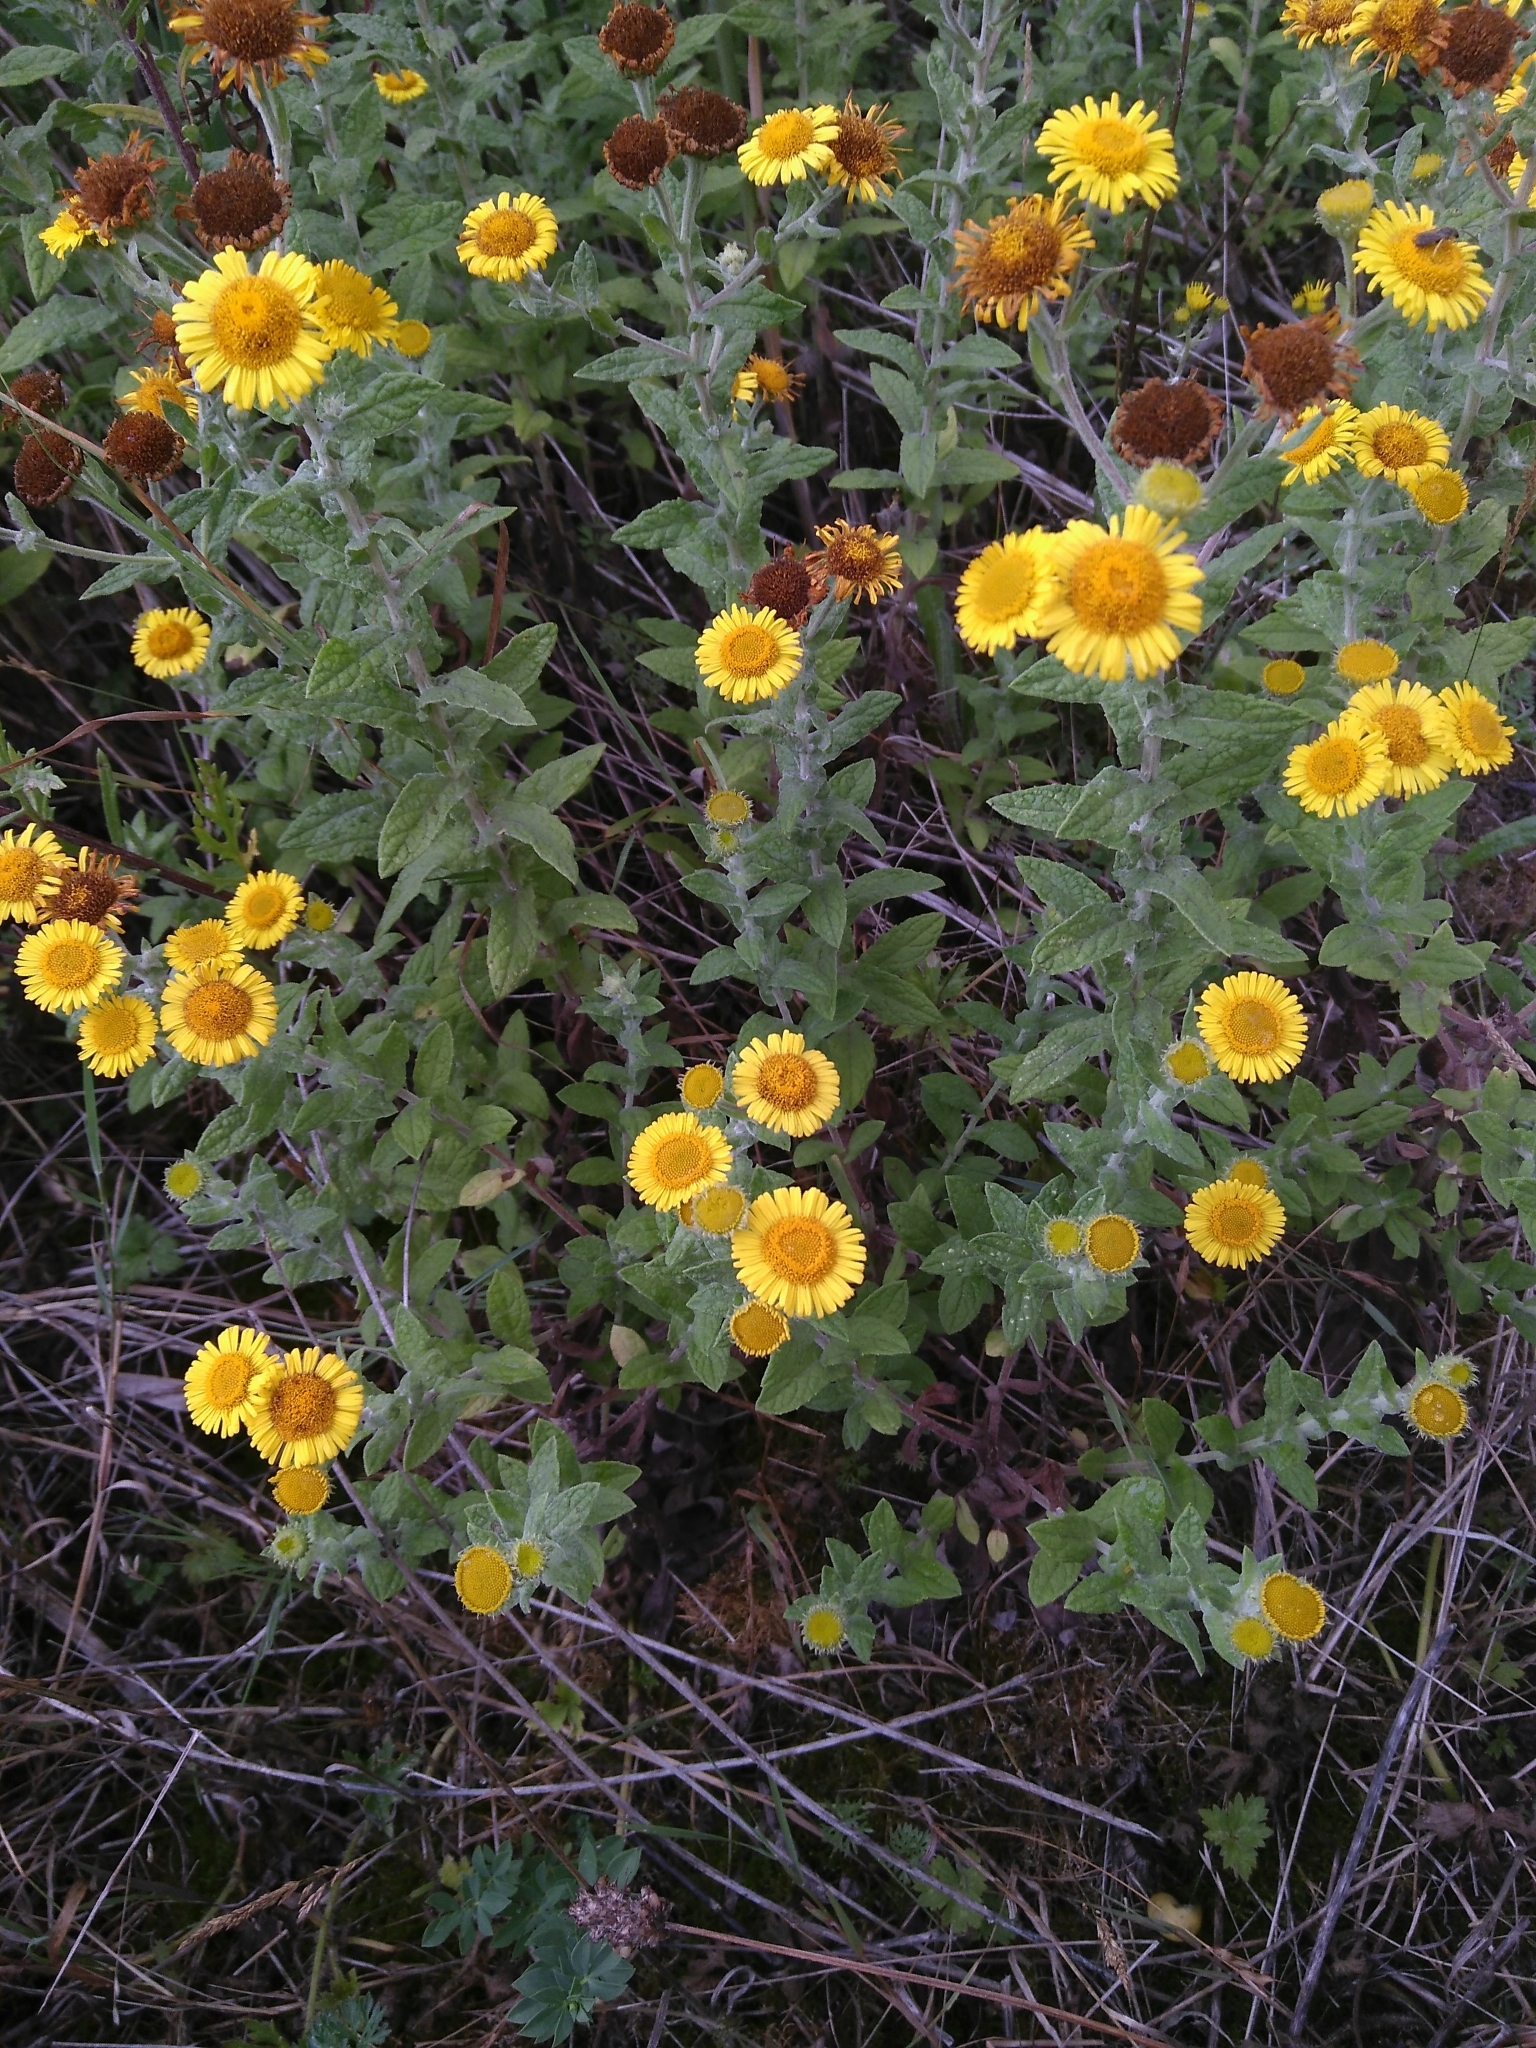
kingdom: Plantae
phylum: Tracheophyta
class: Magnoliopsida
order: Asterales
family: Asteraceae
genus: Pulicaria
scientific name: Pulicaria dysenterica
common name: Common fleabane
